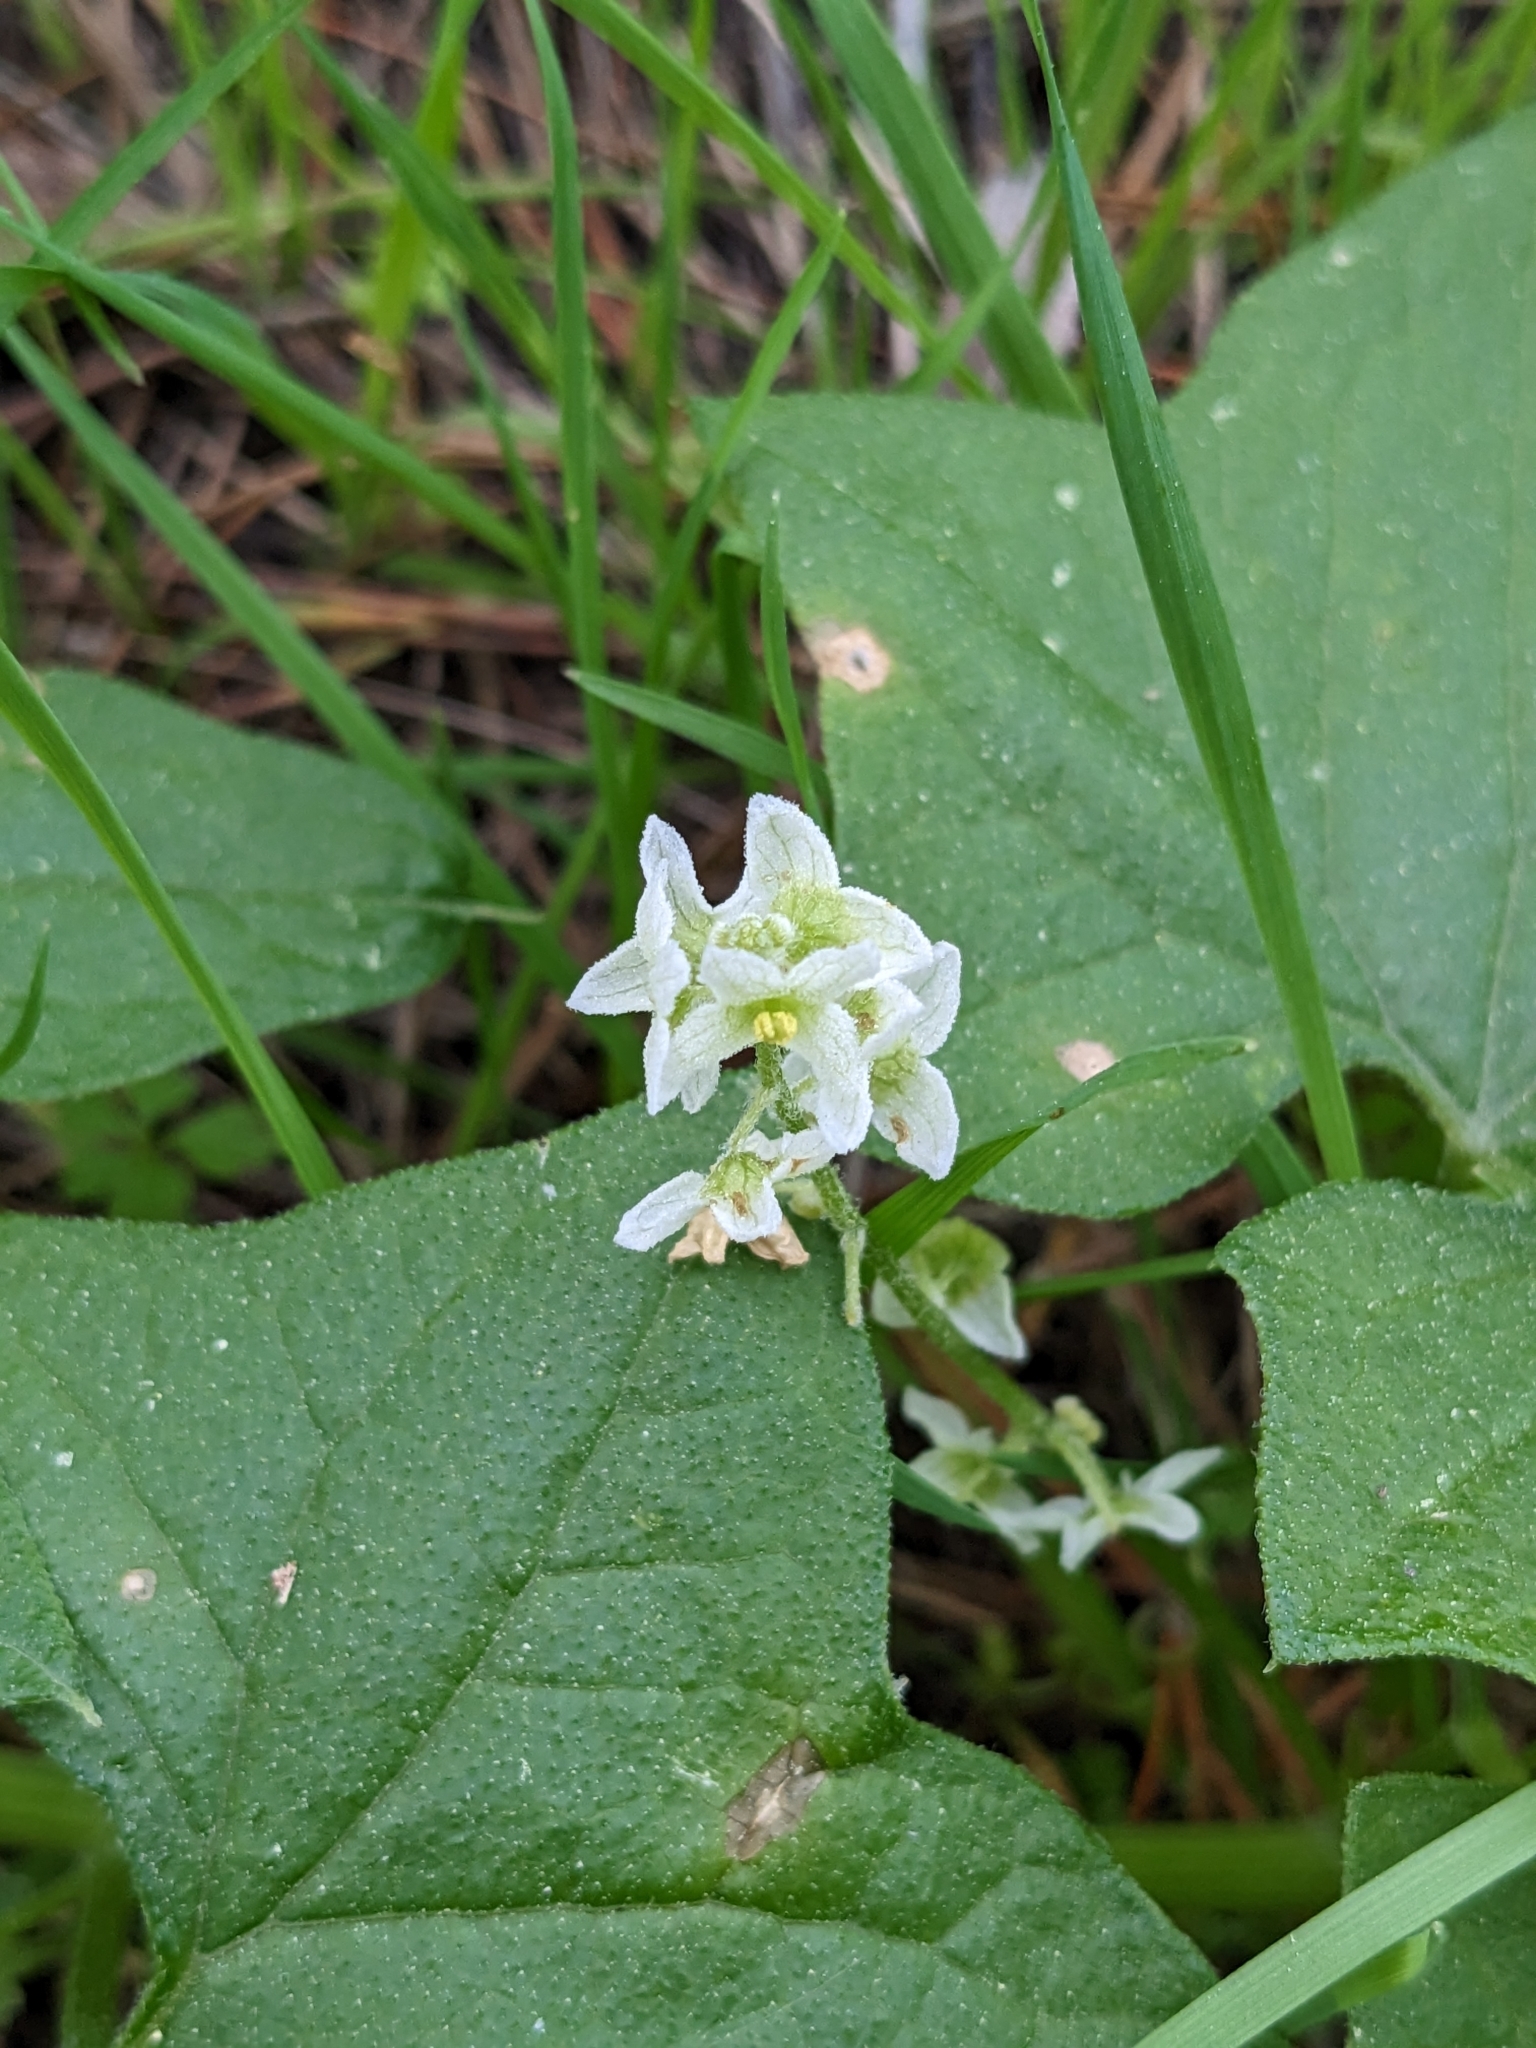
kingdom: Plantae
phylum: Tracheophyta
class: Magnoliopsida
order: Cucurbitales
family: Cucurbitaceae
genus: Marah
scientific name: Marah fabacea
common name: California manroot
